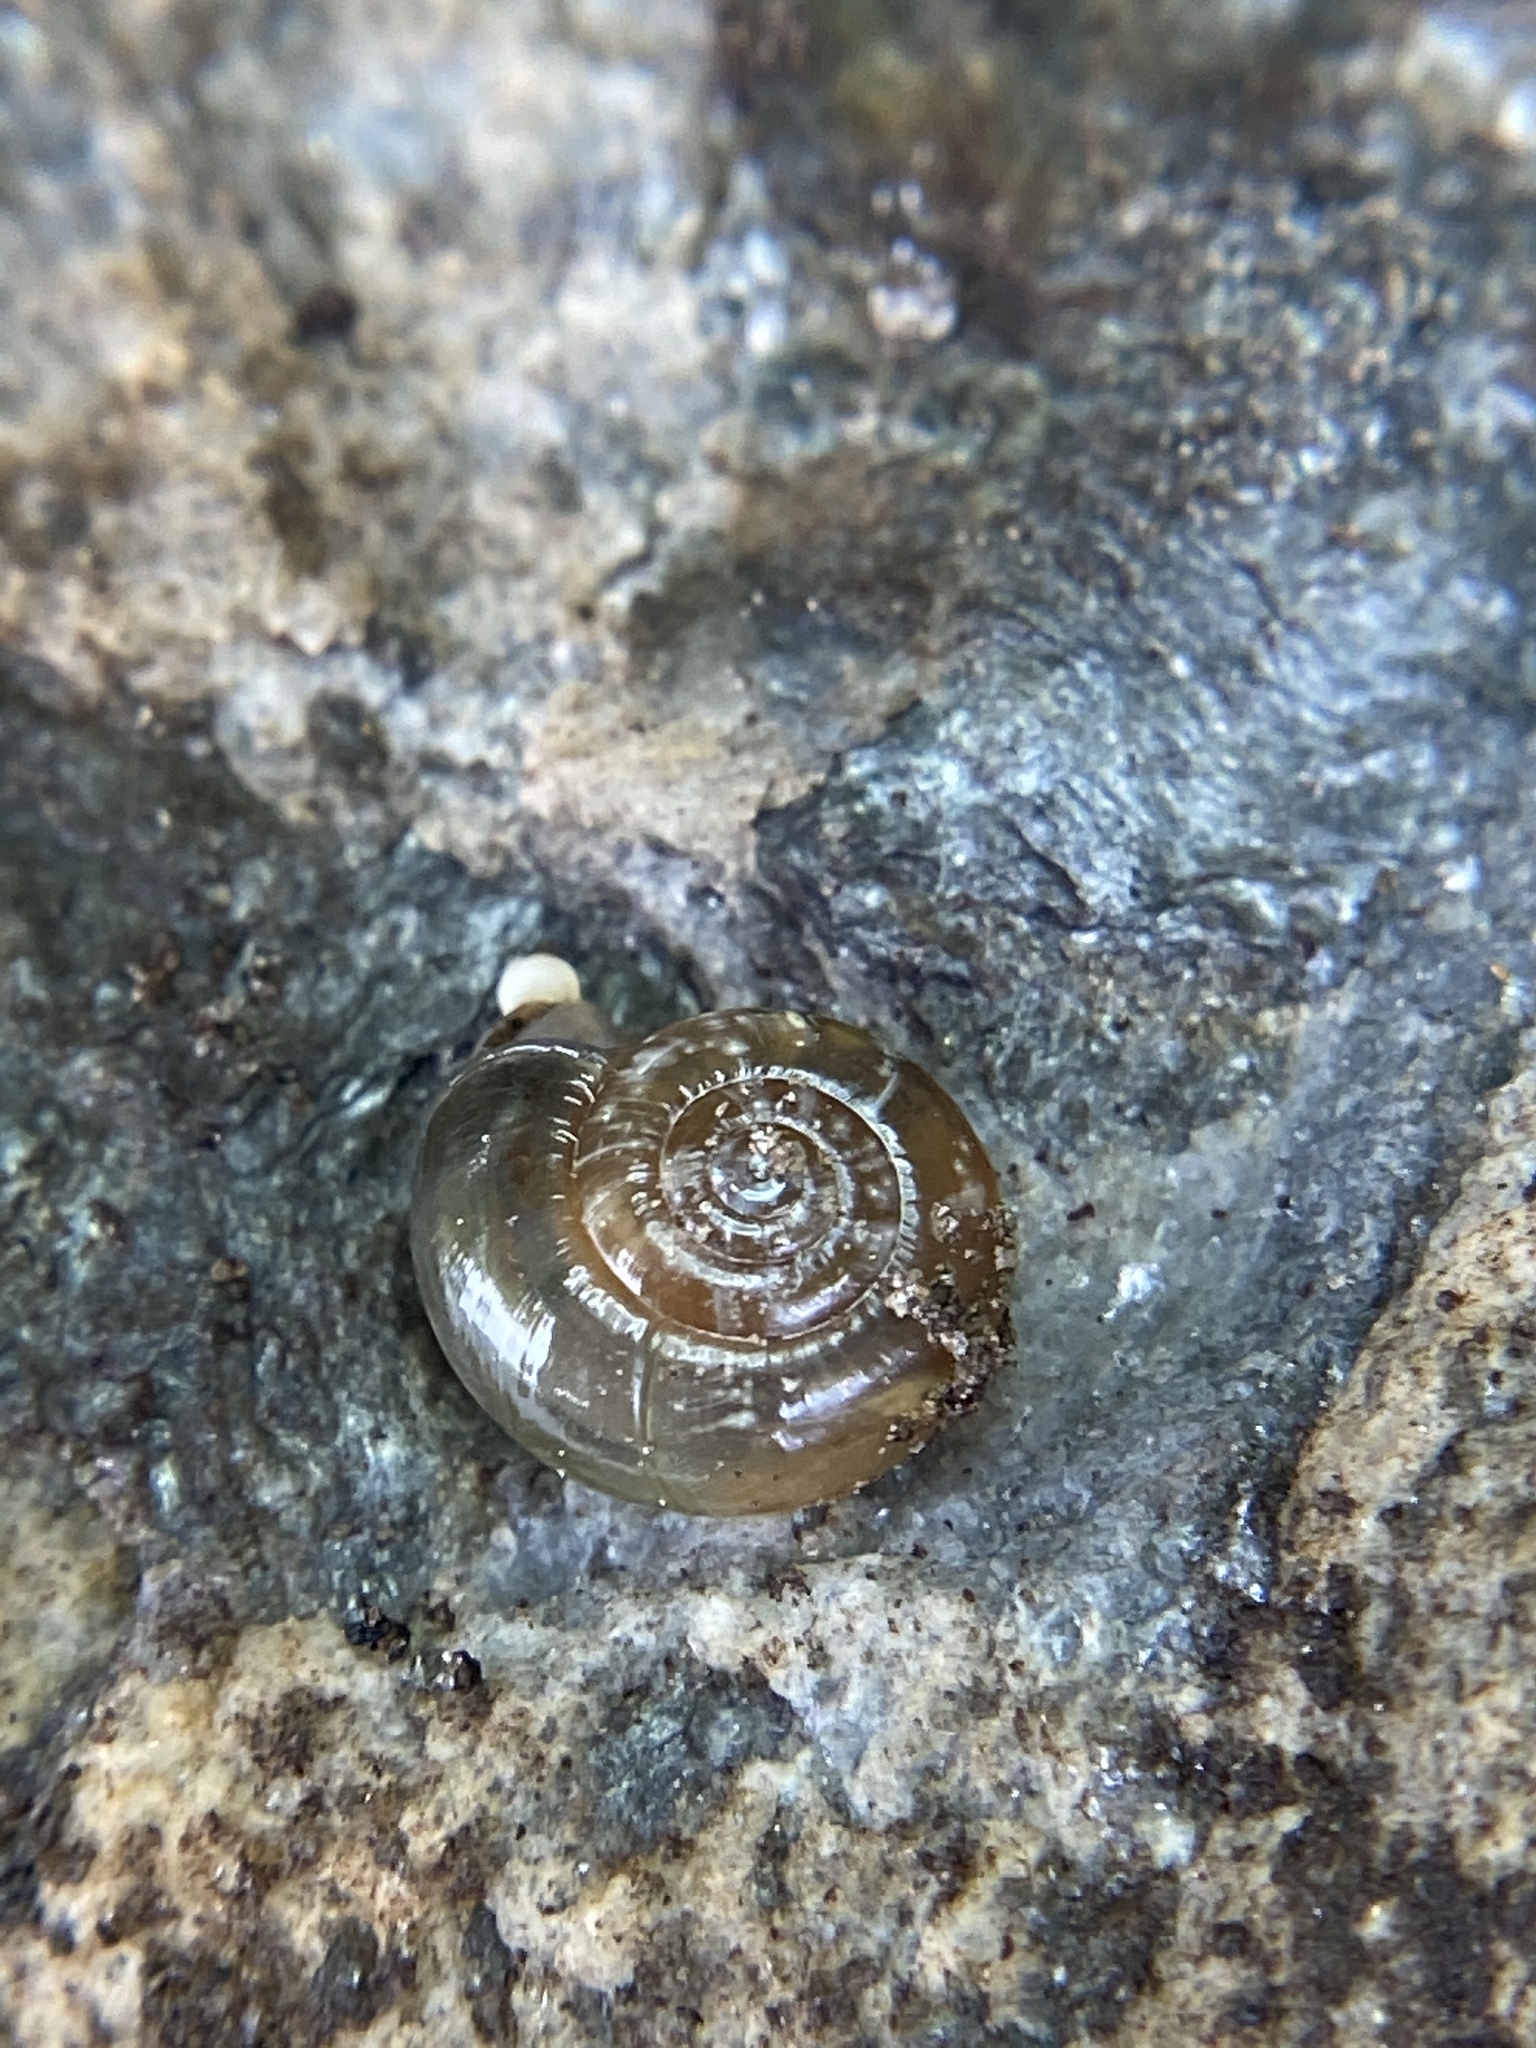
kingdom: Animalia
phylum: Mollusca
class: Gastropoda
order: Stylommatophora
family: Oxychilidae
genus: Oxychilus
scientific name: Oxychilus draparnaudi
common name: Draparnaud's glass snail
